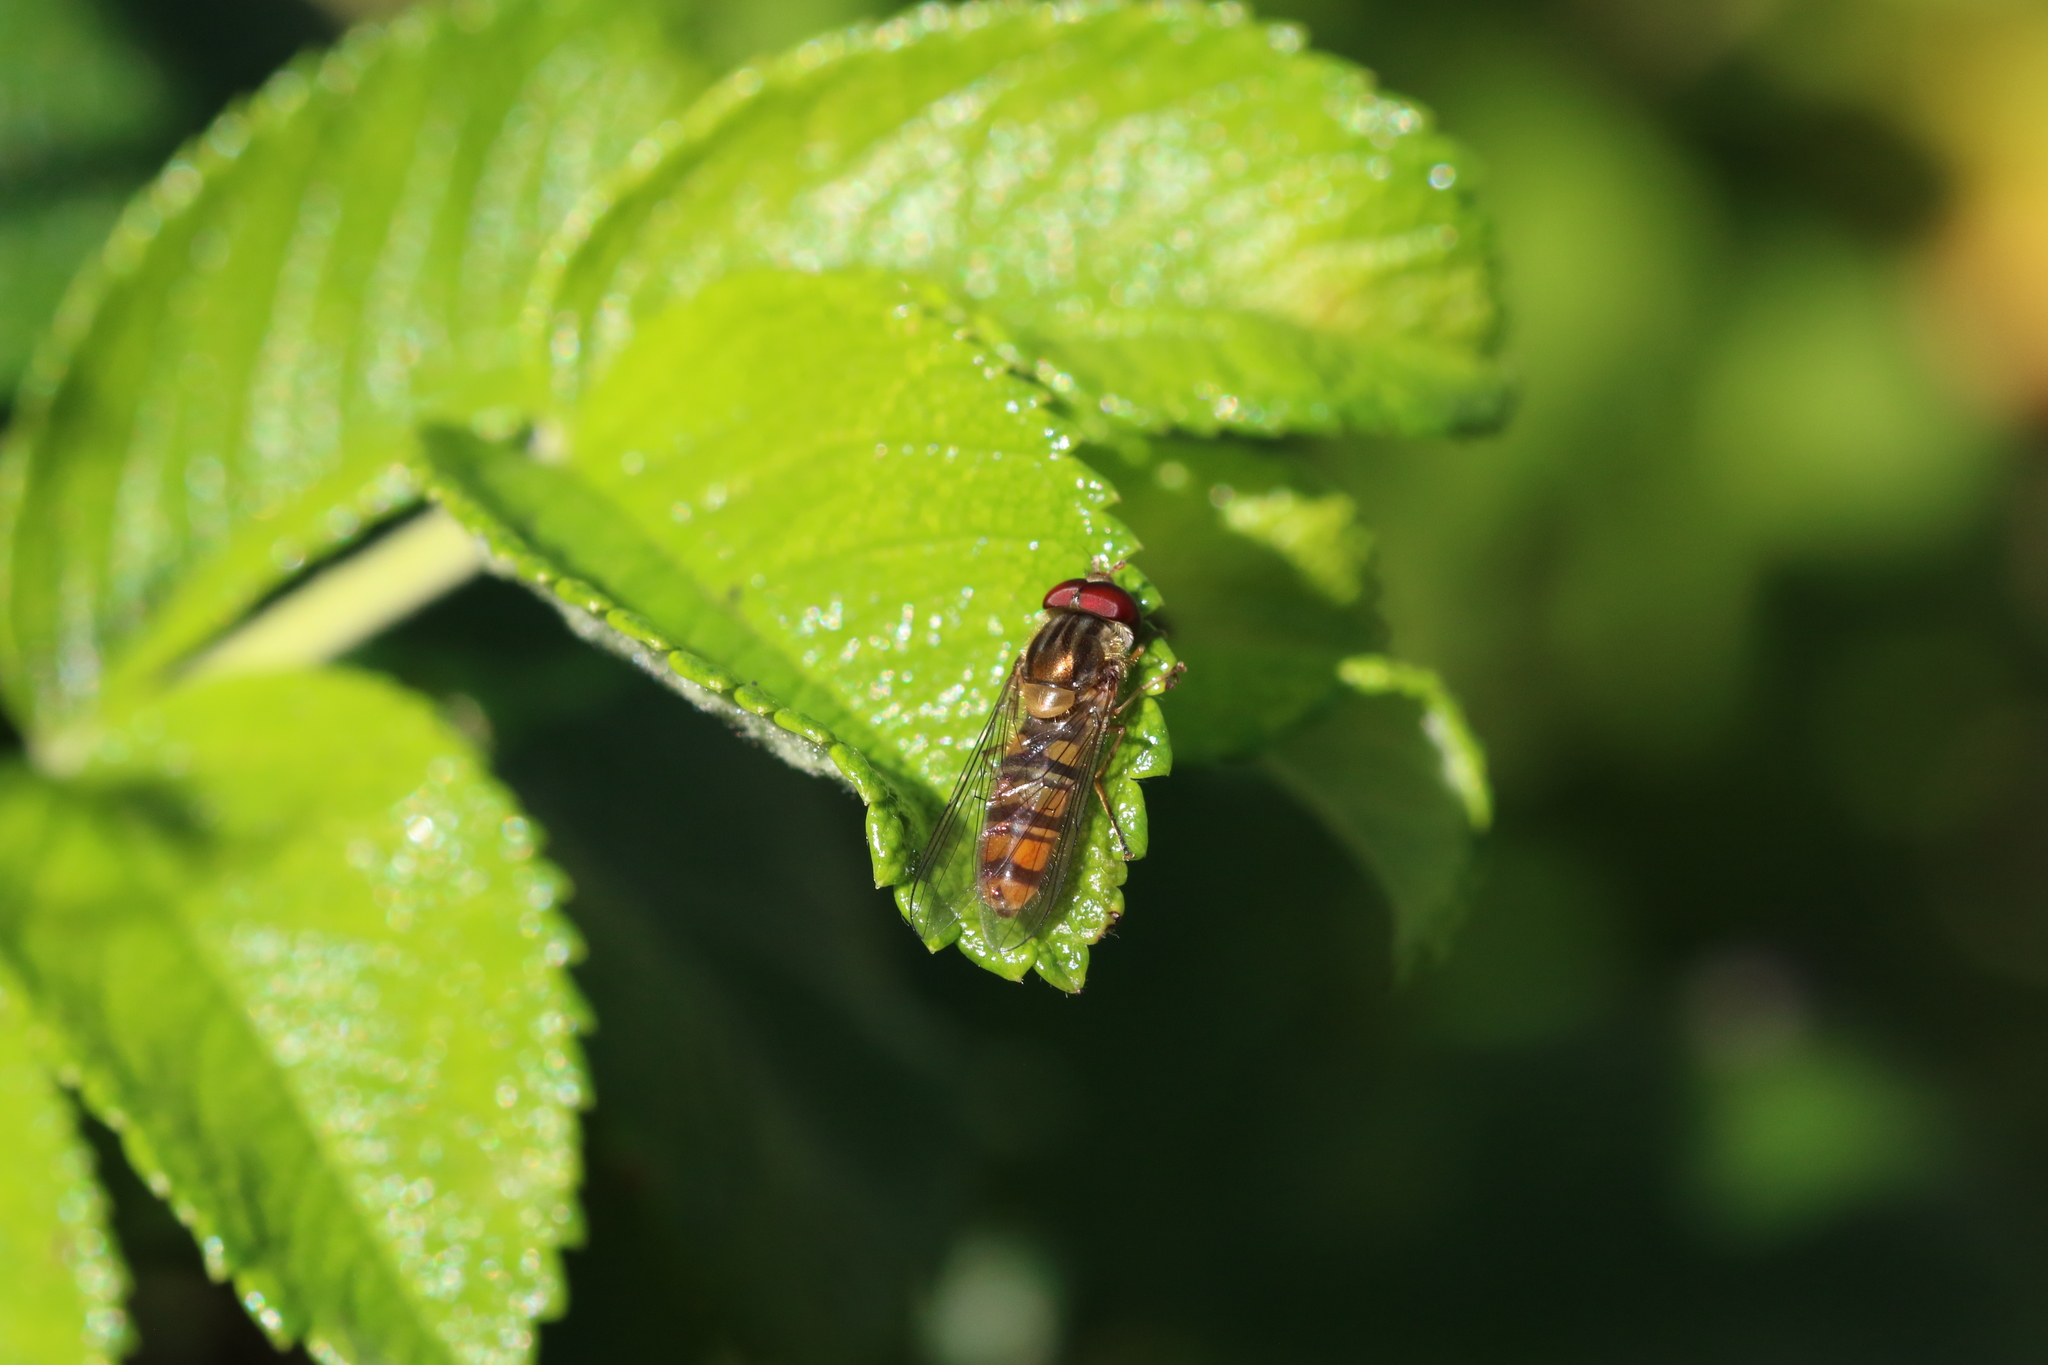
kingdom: Animalia
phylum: Arthropoda
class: Insecta
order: Diptera
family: Syrphidae
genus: Episyrphus
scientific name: Episyrphus balteatus
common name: Marmalade hoverfly
